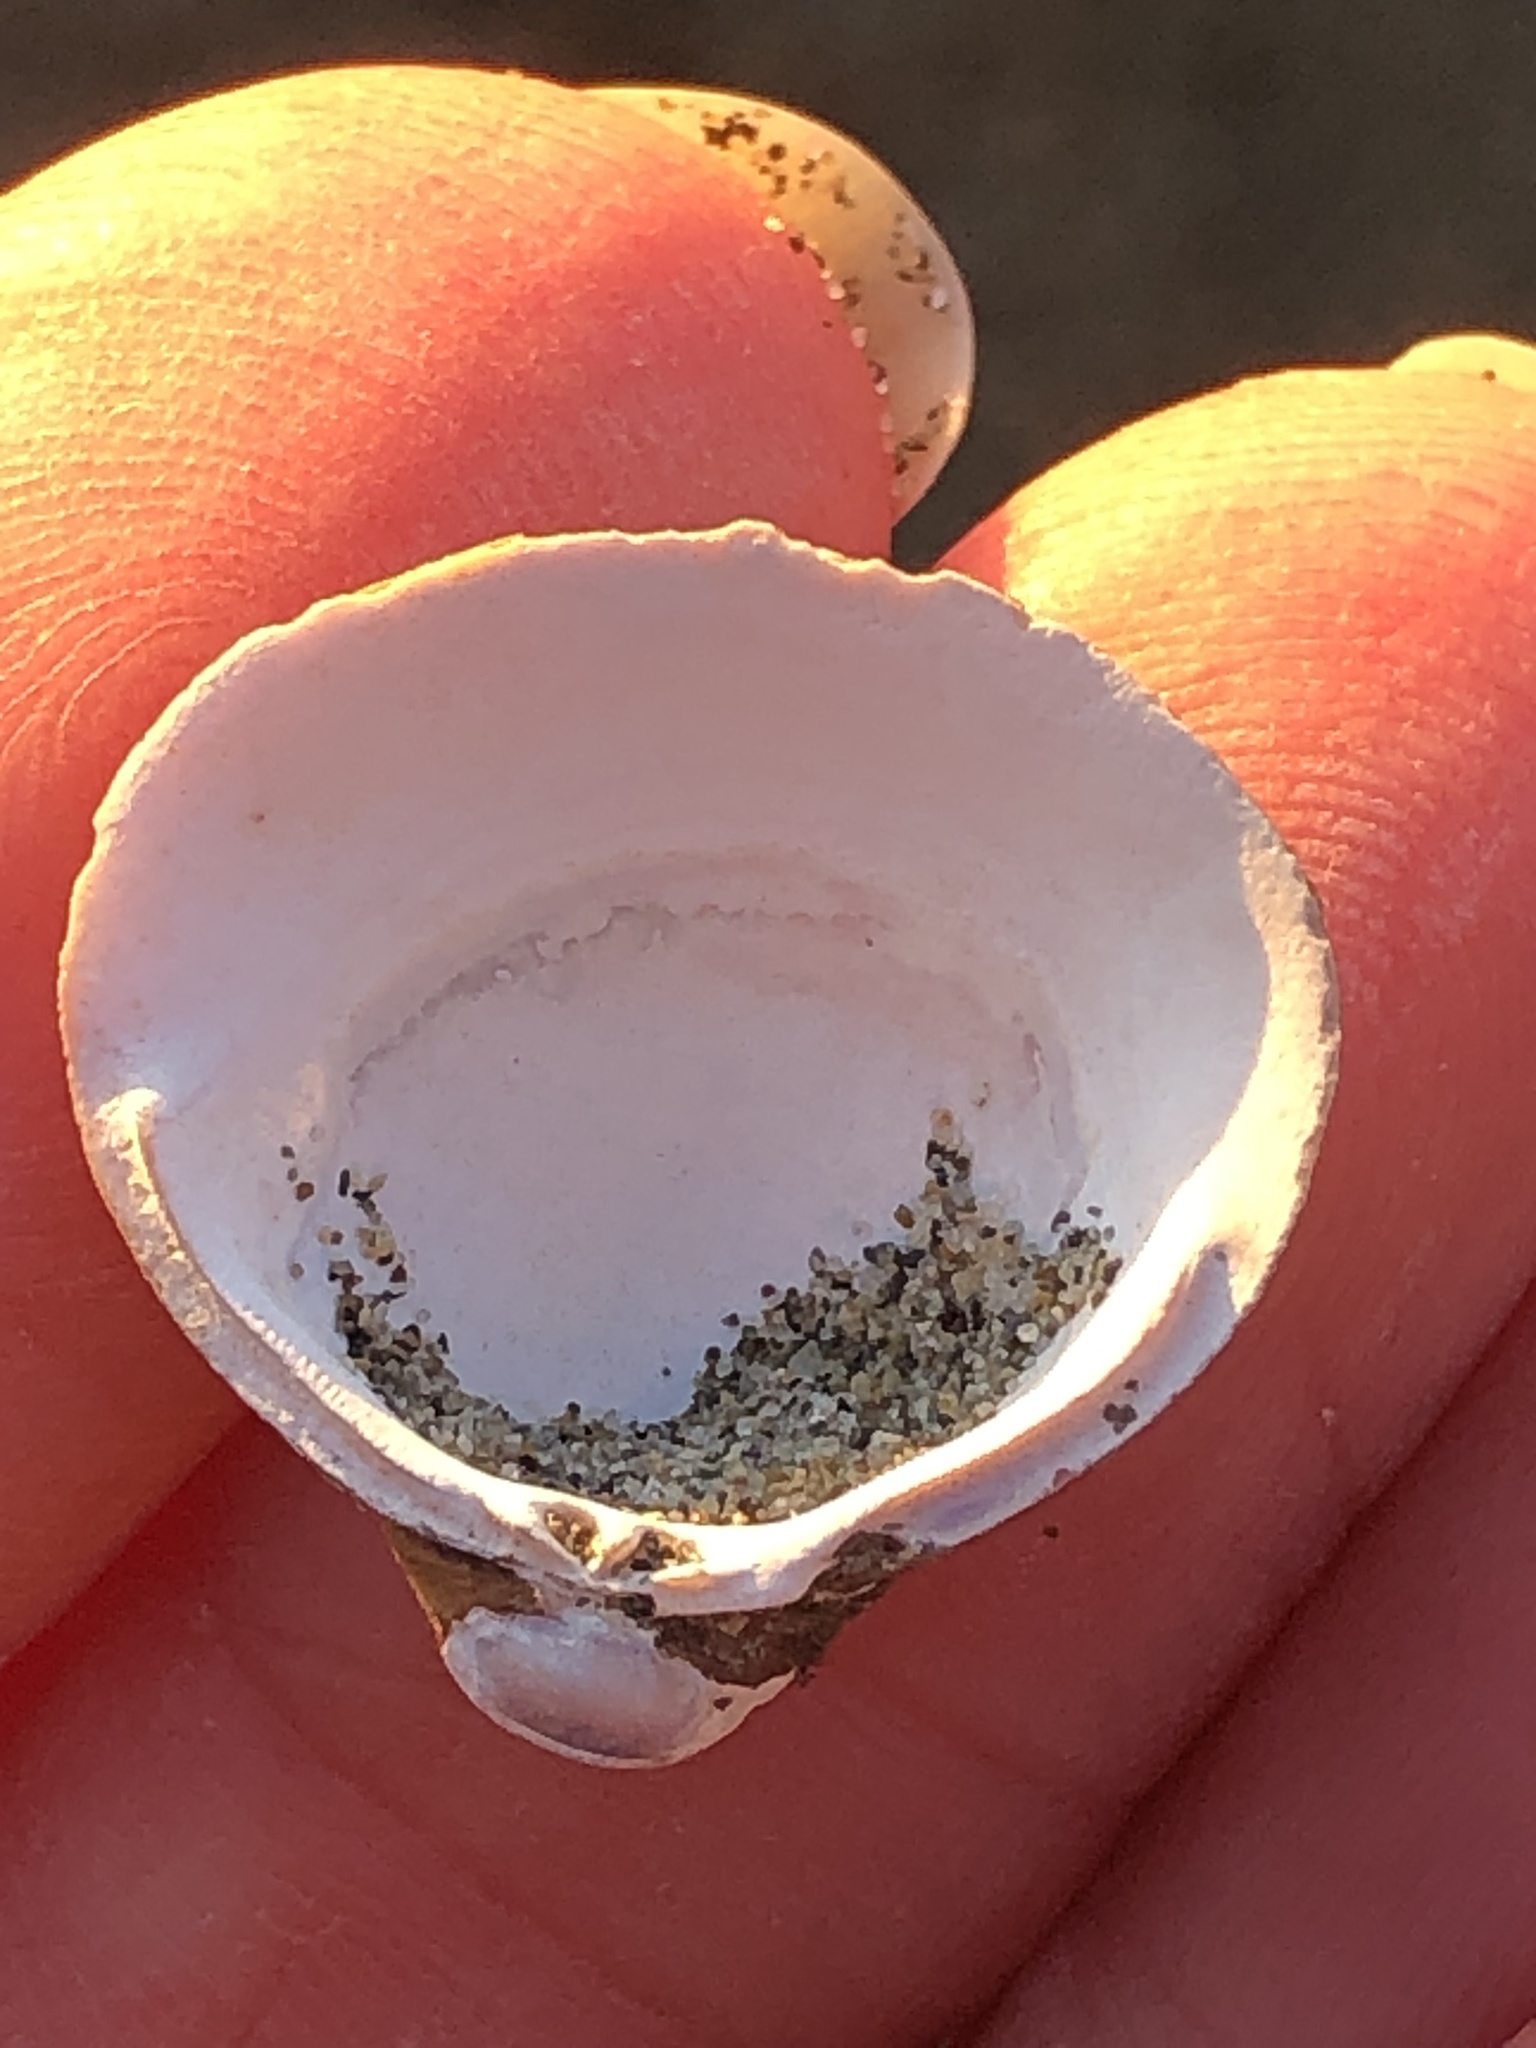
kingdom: Animalia
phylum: Mollusca
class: Bivalvia
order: Venerida
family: Cyrenidae
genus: Corbicula
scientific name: Corbicula fluminea
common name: Asian clam
